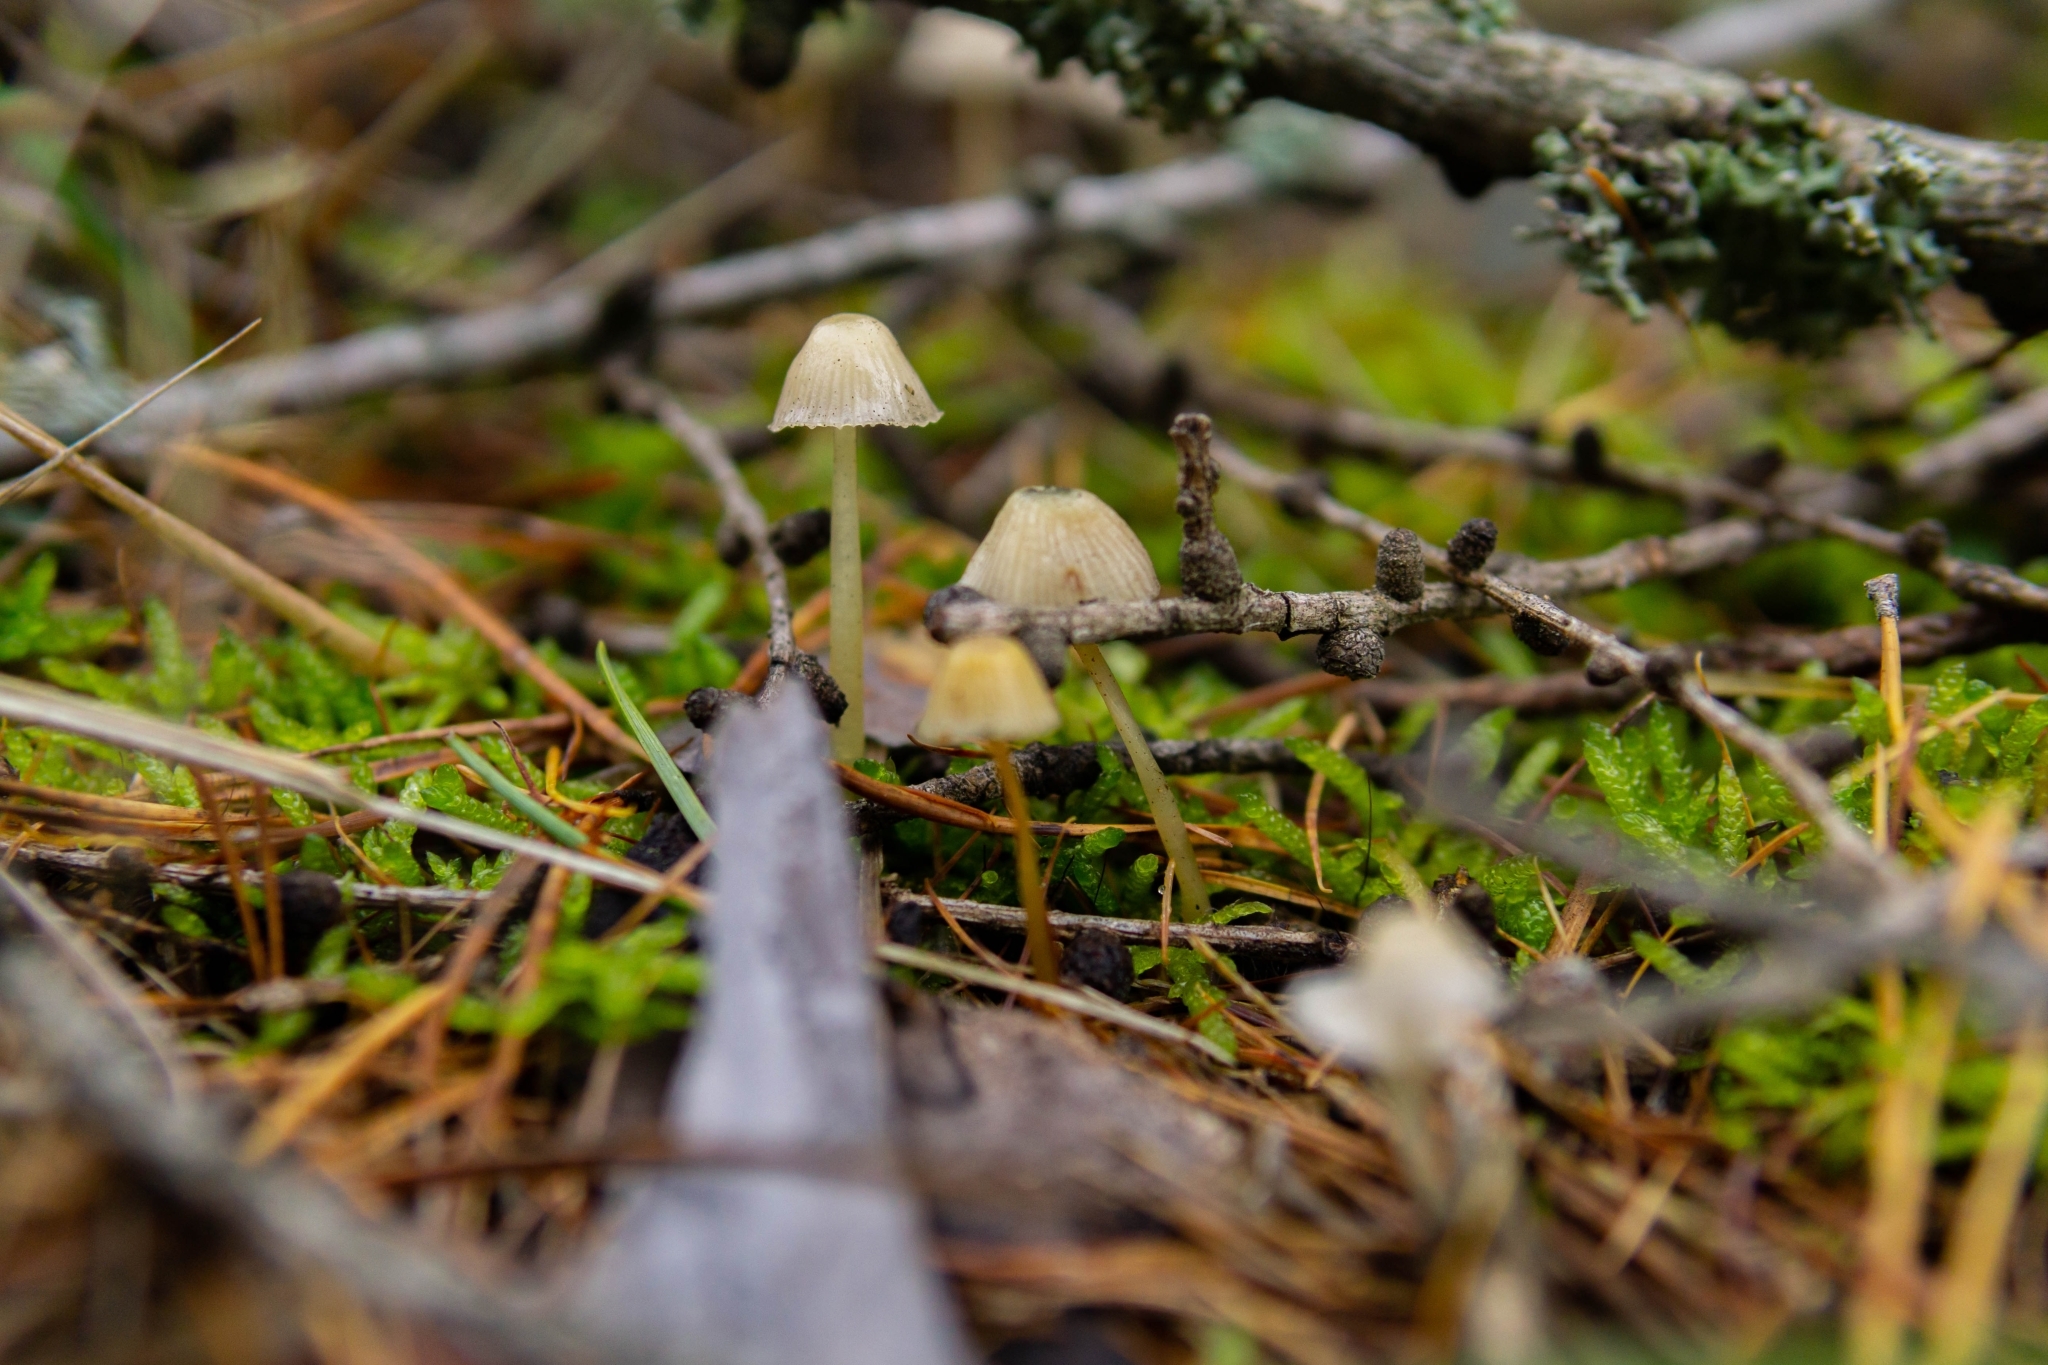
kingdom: Fungi
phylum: Basidiomycota
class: Agaricomycetes
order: Agaricales
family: Mycenaceae
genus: Mycena
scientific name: Mycena epipterygia
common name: Yellowleg bonnet
